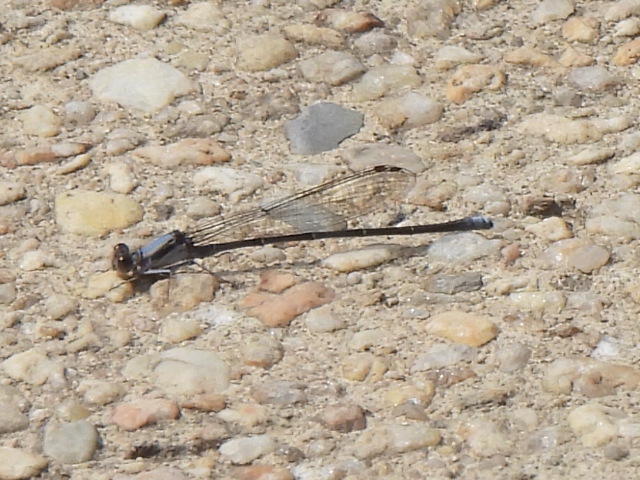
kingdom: Animalia
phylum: Arthropoda
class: Insecta
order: Odonata
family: Coenagrionidae
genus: Argia
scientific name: Argia moesta
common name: Powdered dancer
